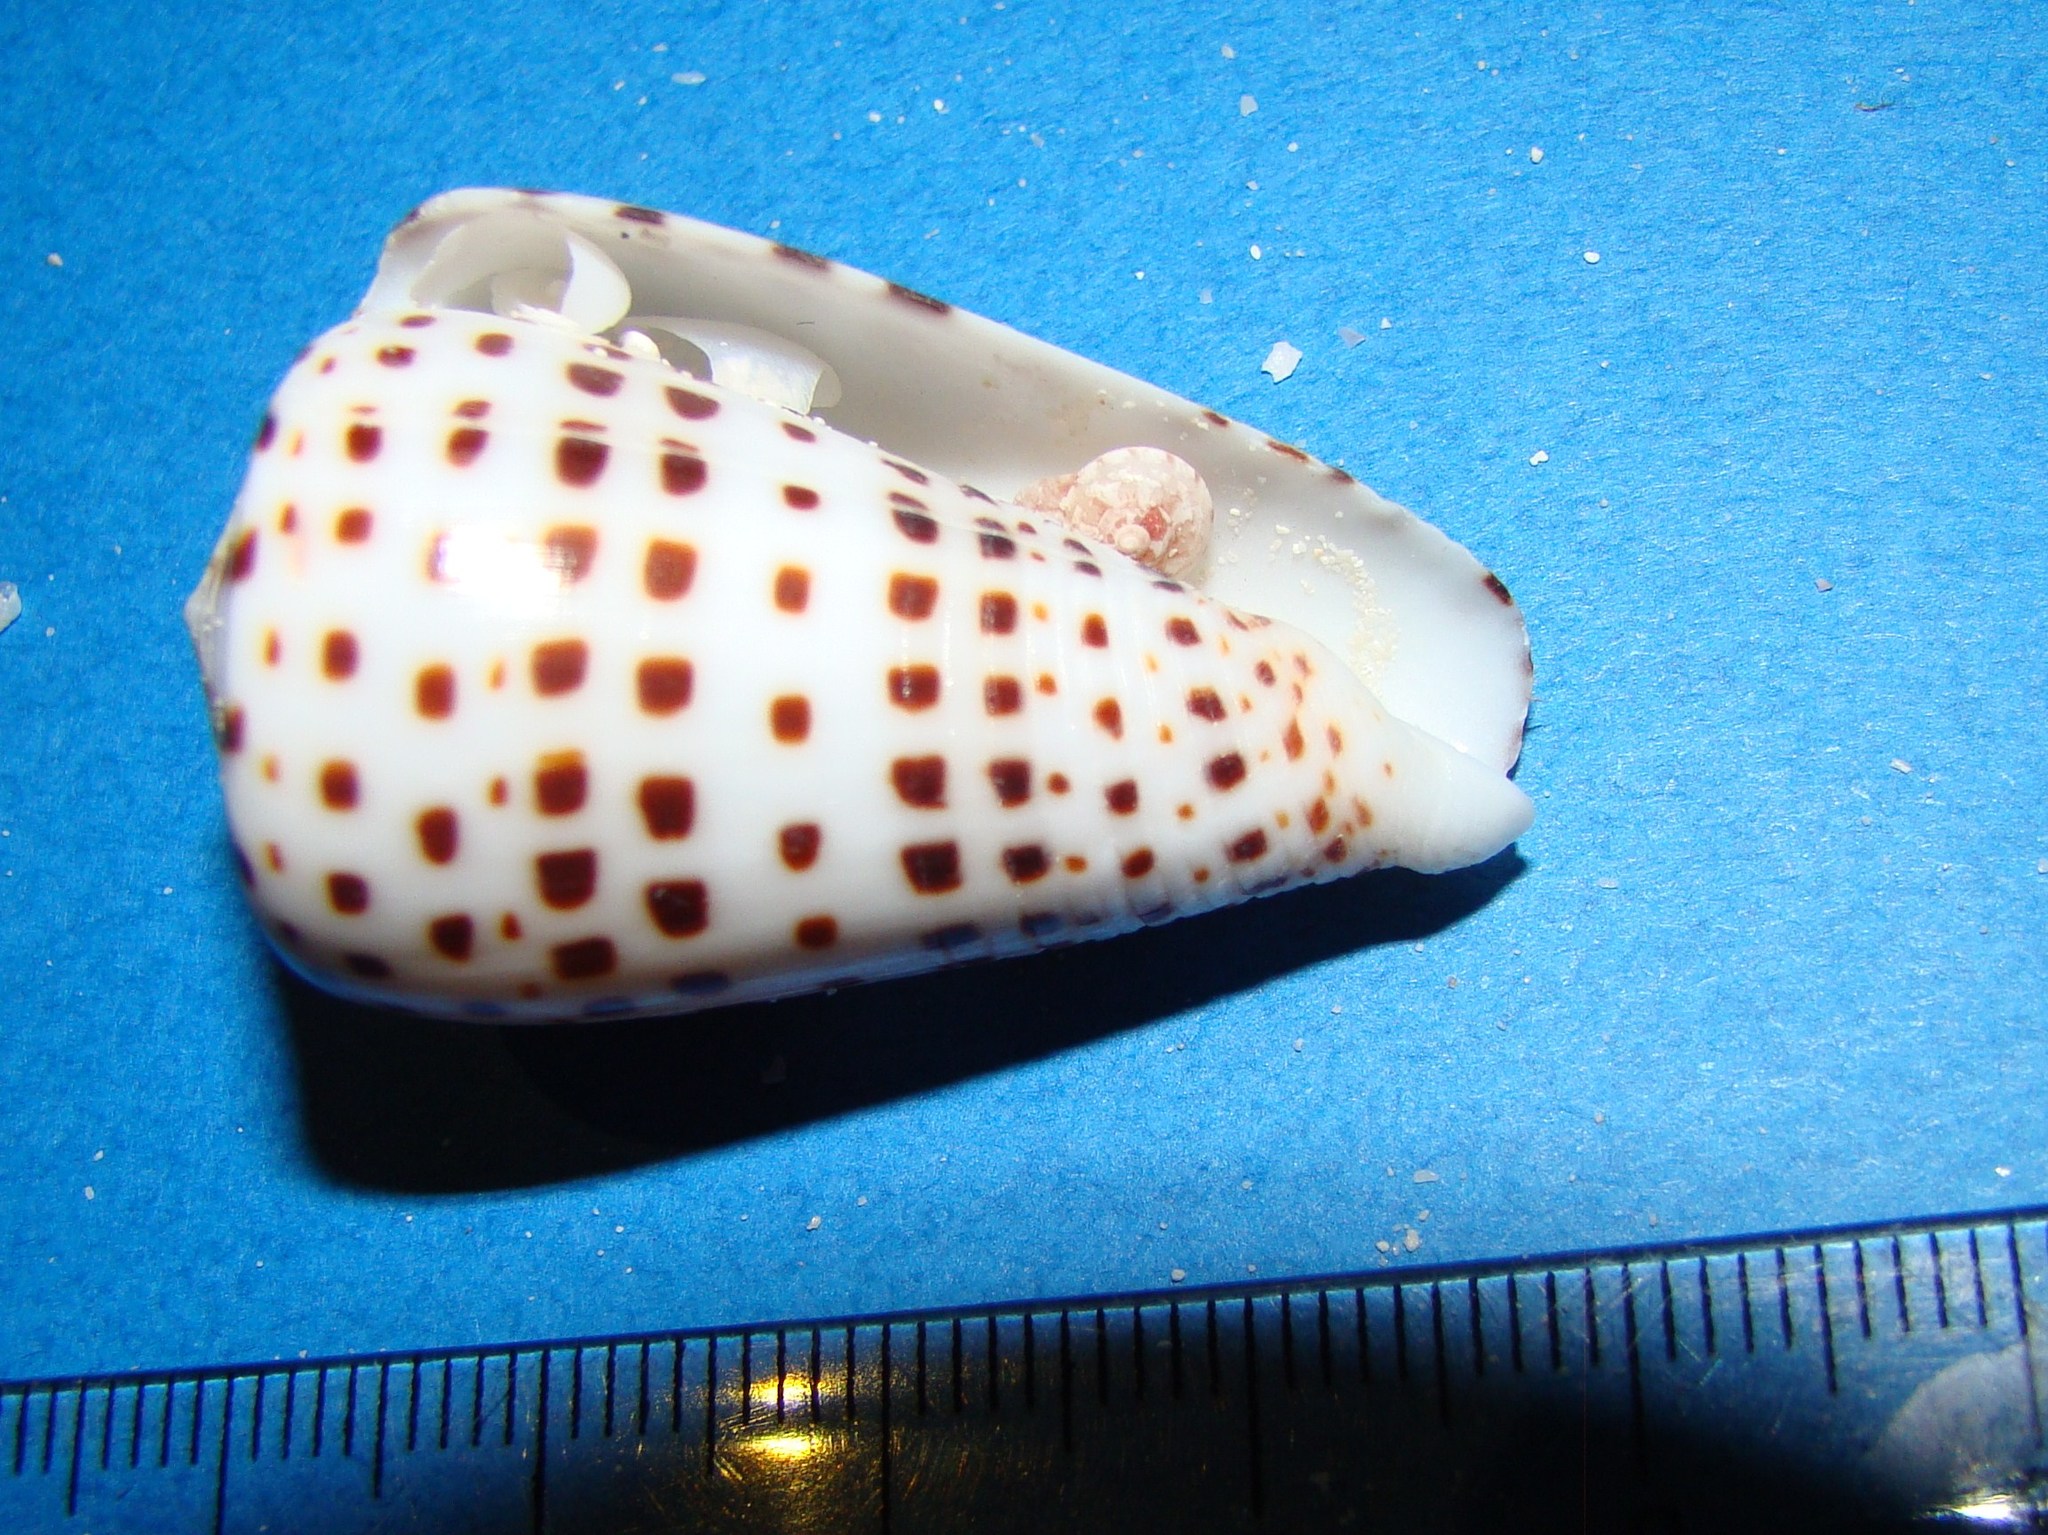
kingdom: Animalia
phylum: Mollusca
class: Gastropoda
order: Neogastropoda
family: Conidae
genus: Conus
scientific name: Conus eburneus
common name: Ivory cone
